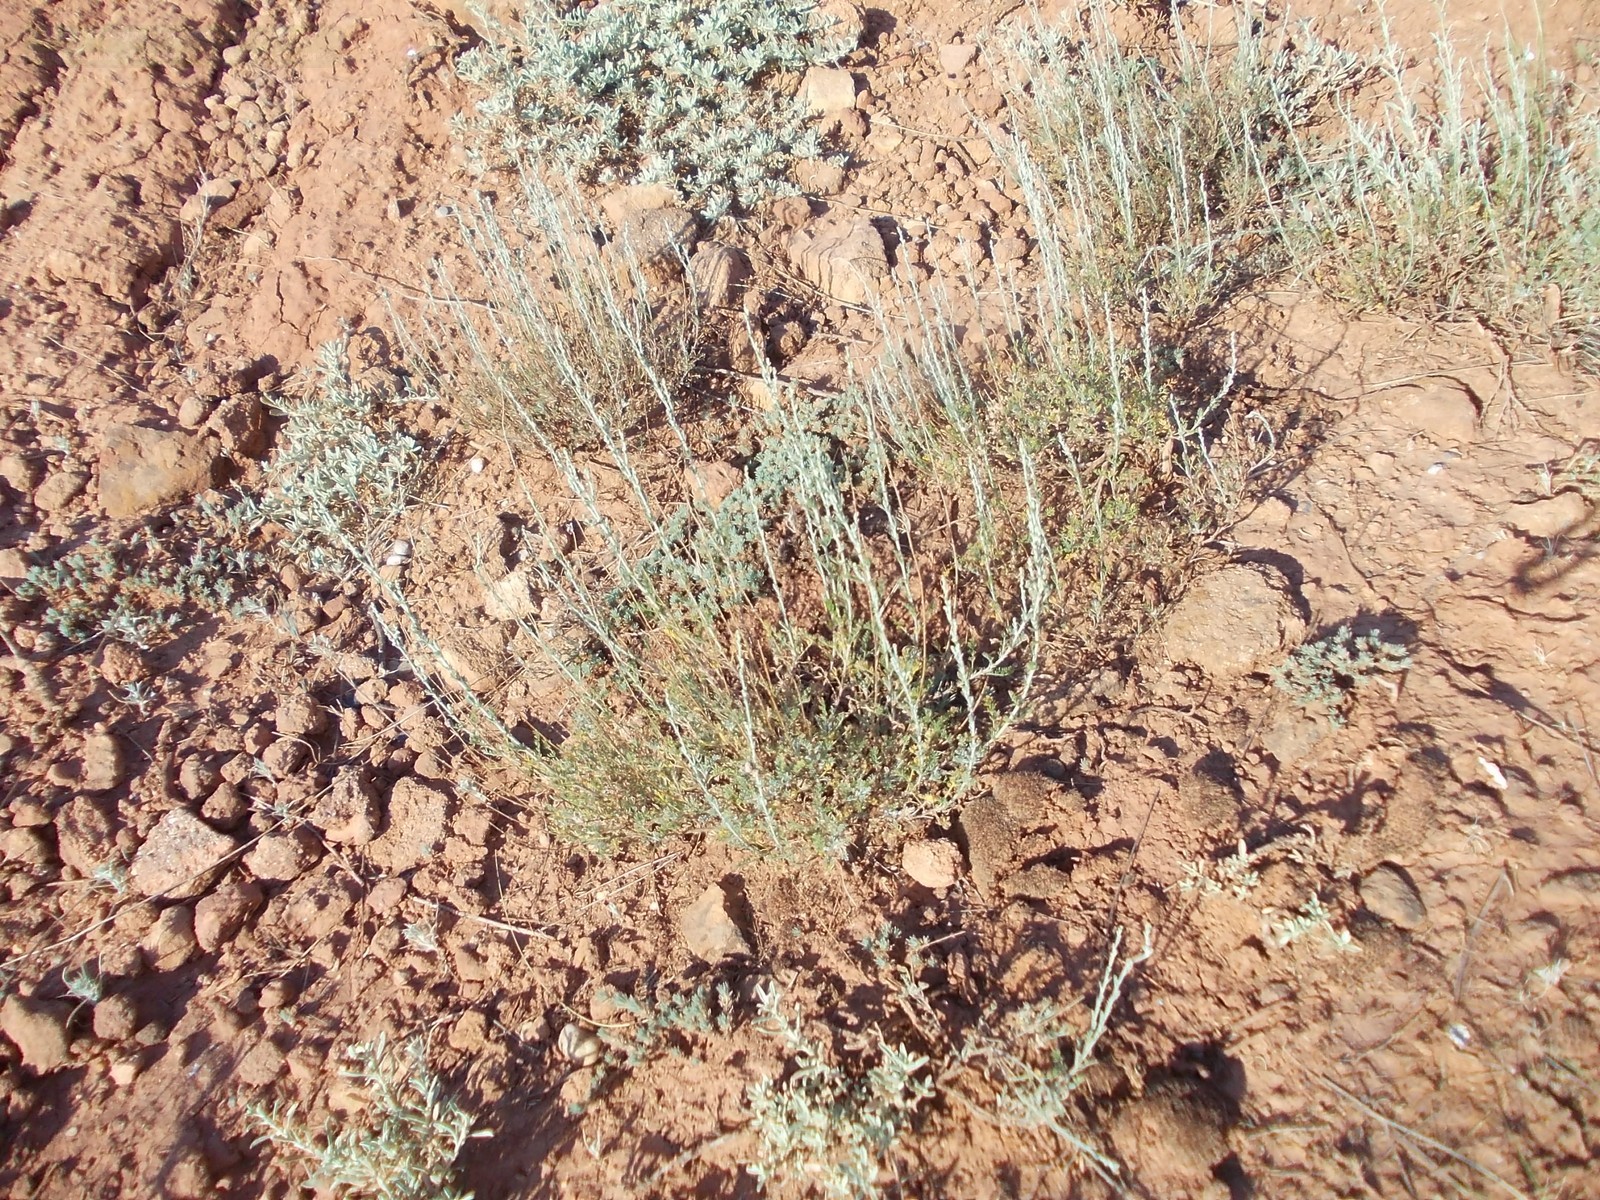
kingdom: Plantae
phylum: Tracheophyta
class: Magnoliopsida
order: Asterales
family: Asteraceae
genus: Artemisia
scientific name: Artemisia pauciflora
